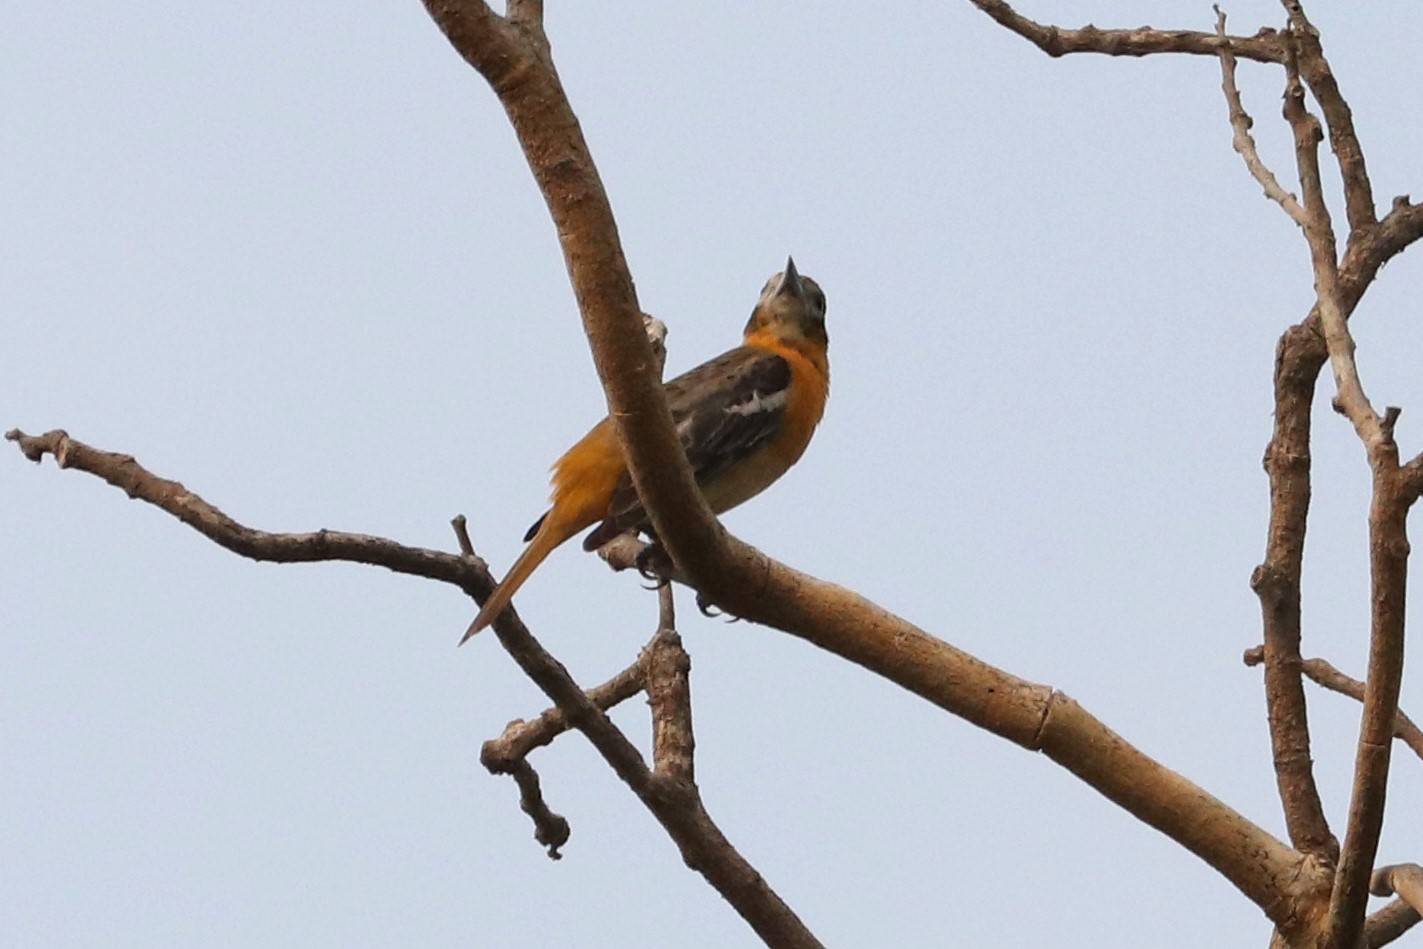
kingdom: Animalia
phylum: Chordata
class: Aves
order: Passeriformes
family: Icteridae
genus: Icterus
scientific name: Icterus galbula
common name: Baltimore oriole
